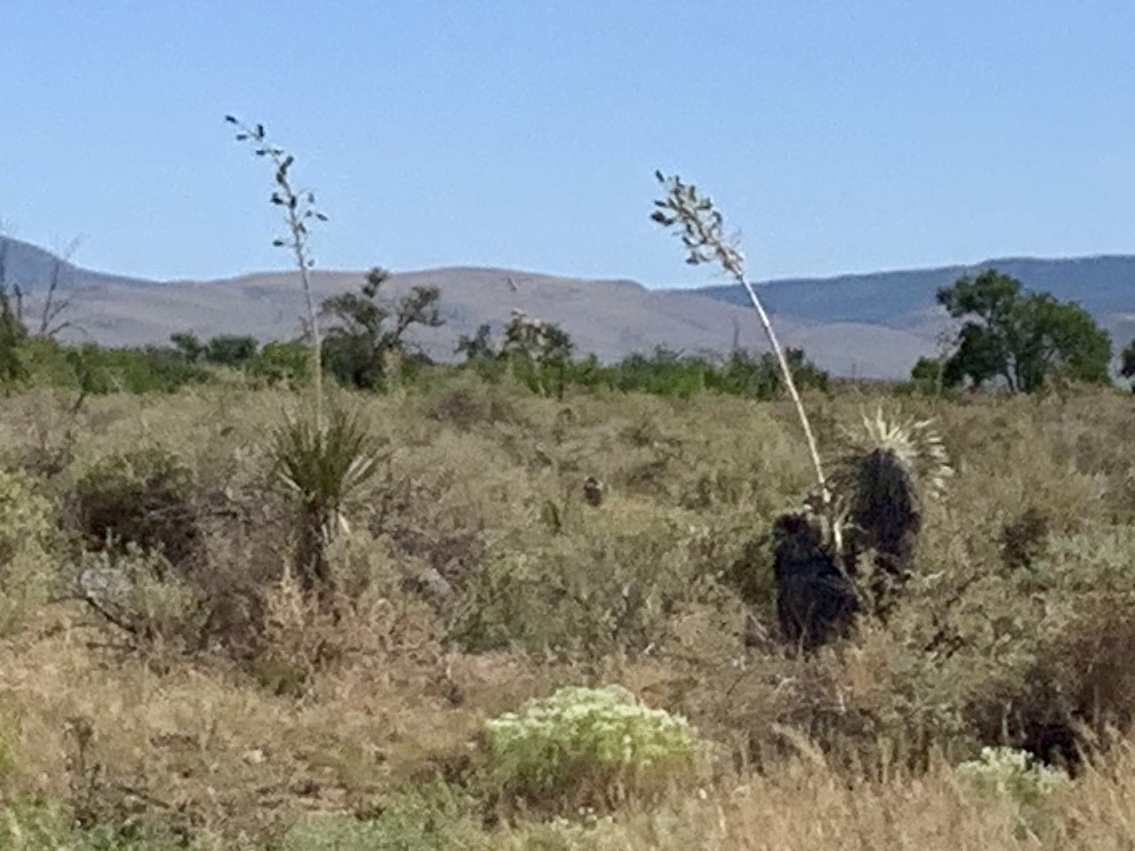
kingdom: Plantae
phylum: Tracheophyta
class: Liliopsida
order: Asparagales
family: Asparagaceae
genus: Yucca
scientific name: Yucca elata
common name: Palmella
